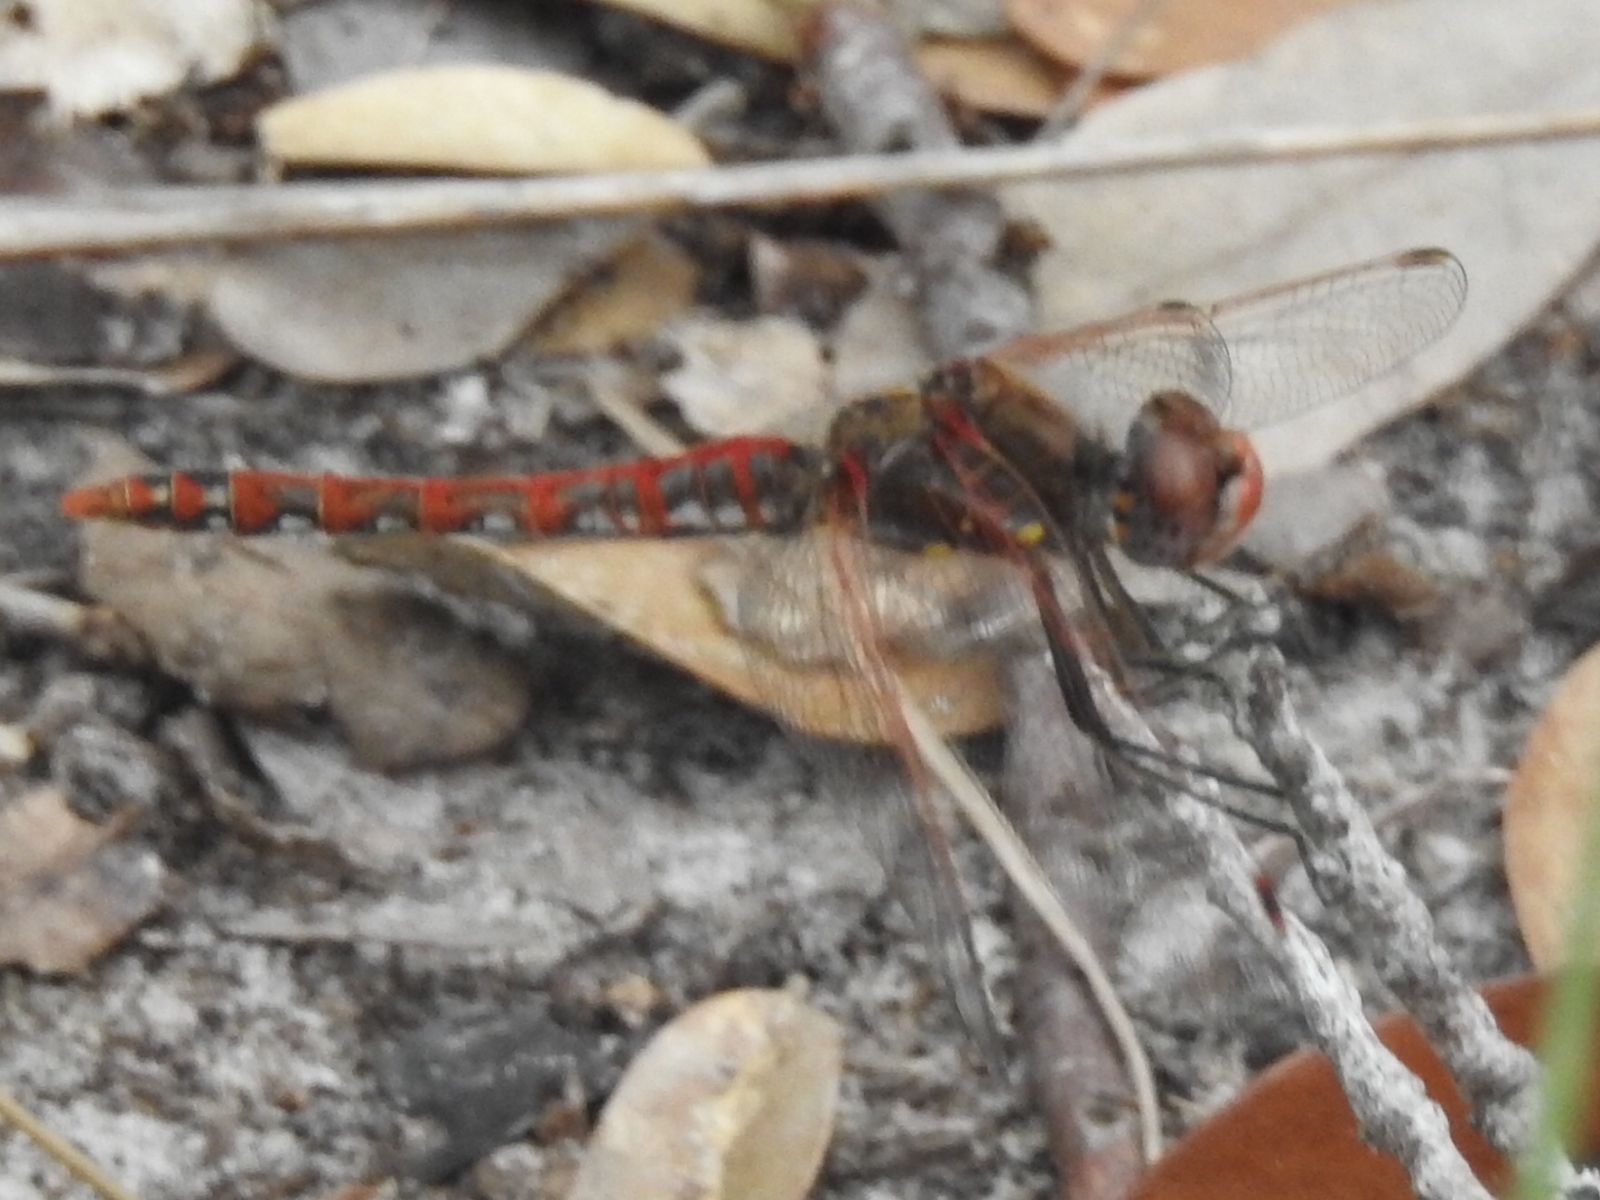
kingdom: Animalia
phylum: Arthropoda
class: Insecta
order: Odonata
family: Libellulidae
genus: Sympetrum
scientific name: Sympetrum corruptum
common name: Variegated meadowhawk
